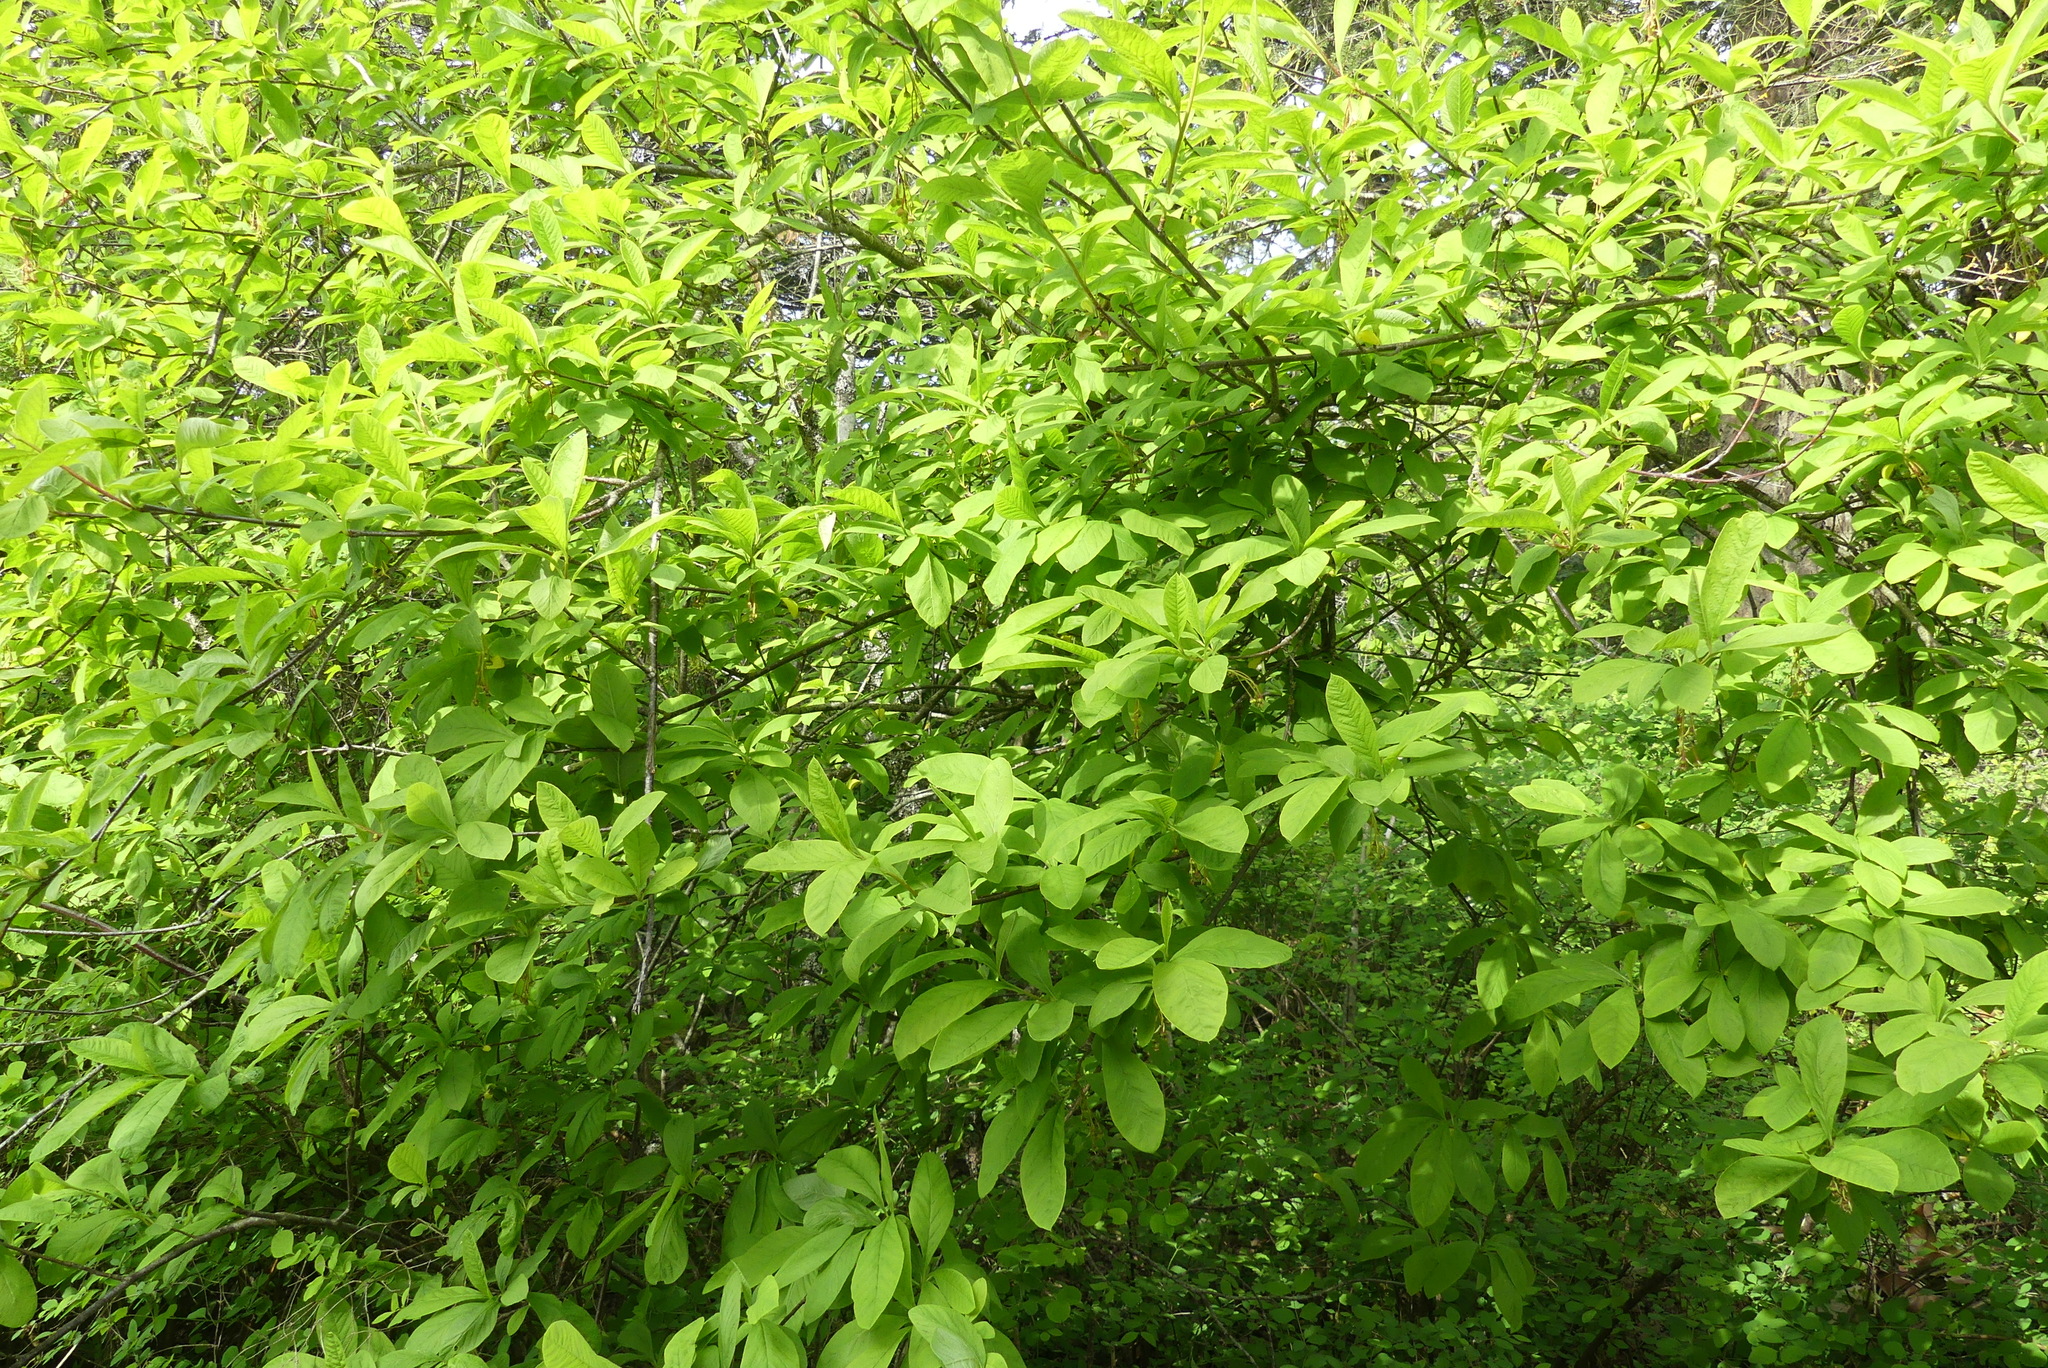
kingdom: Plantae
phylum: Tracheophyta
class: Magnoliopsida
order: Rosales
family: Rosaceae
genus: Oemleria
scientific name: Oemleria cerasiformis
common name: Osoberry
